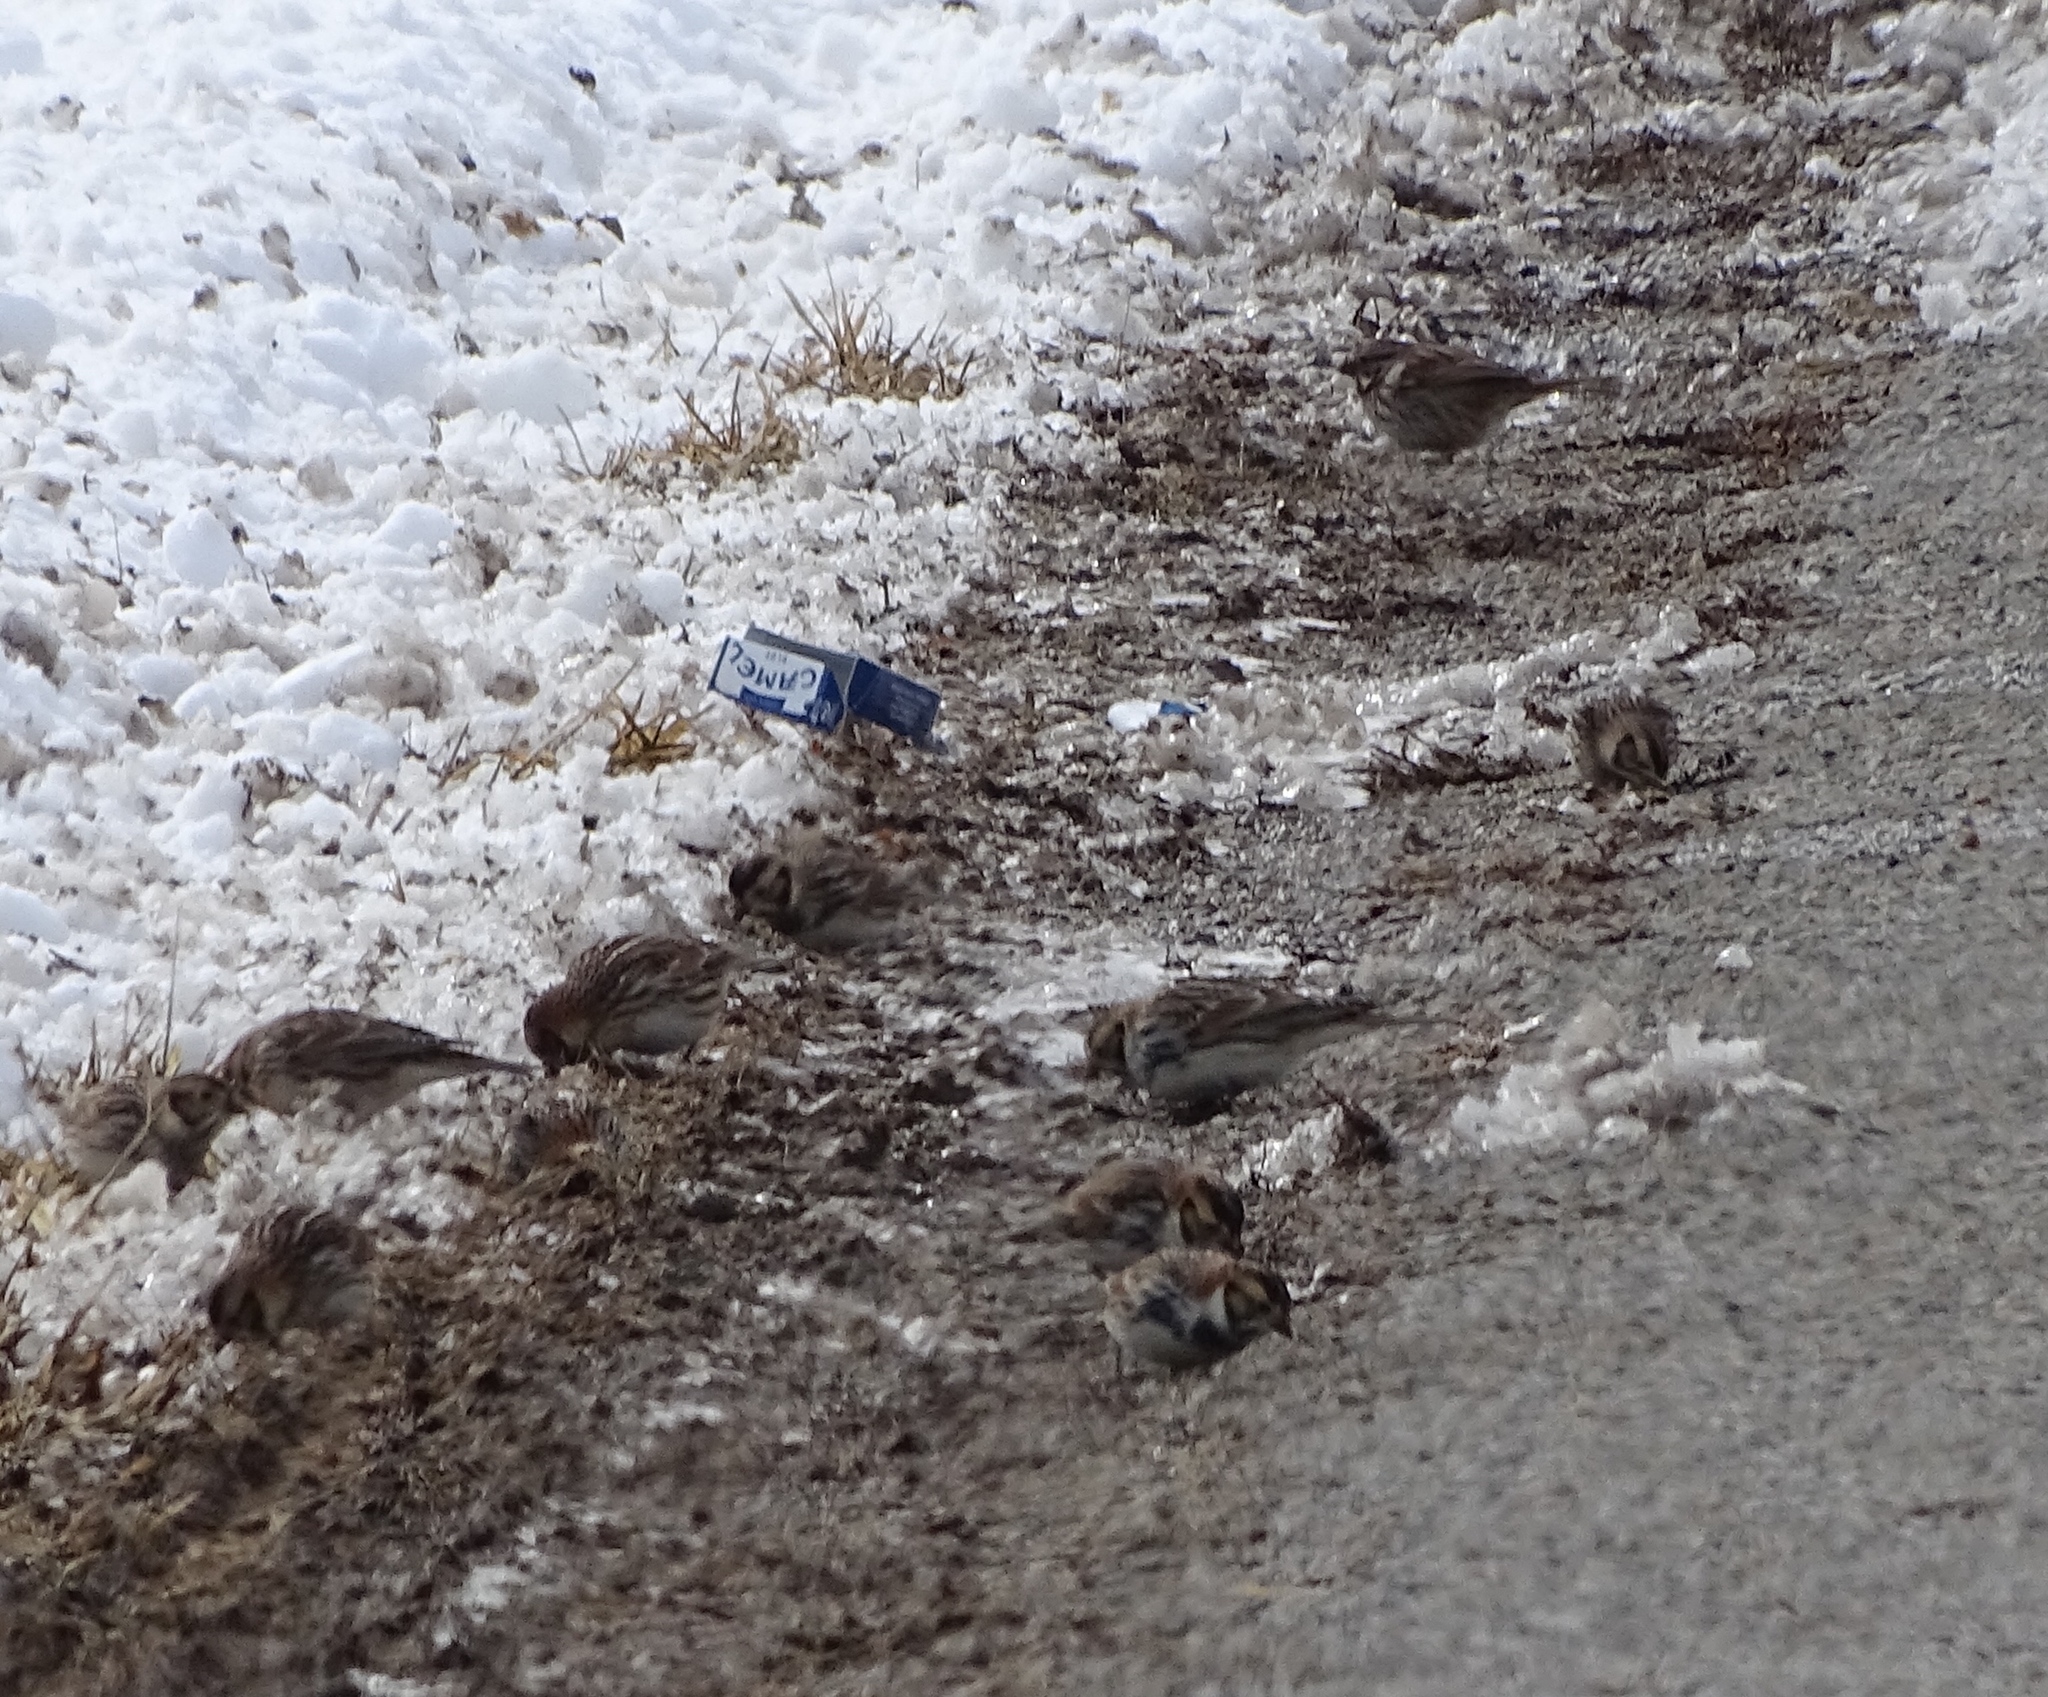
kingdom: Animalia
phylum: Chordata
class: Aves
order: Passeriformes
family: Calcariidae
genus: Calcarius
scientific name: Calcarius lapponicus
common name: Lapland longspur
